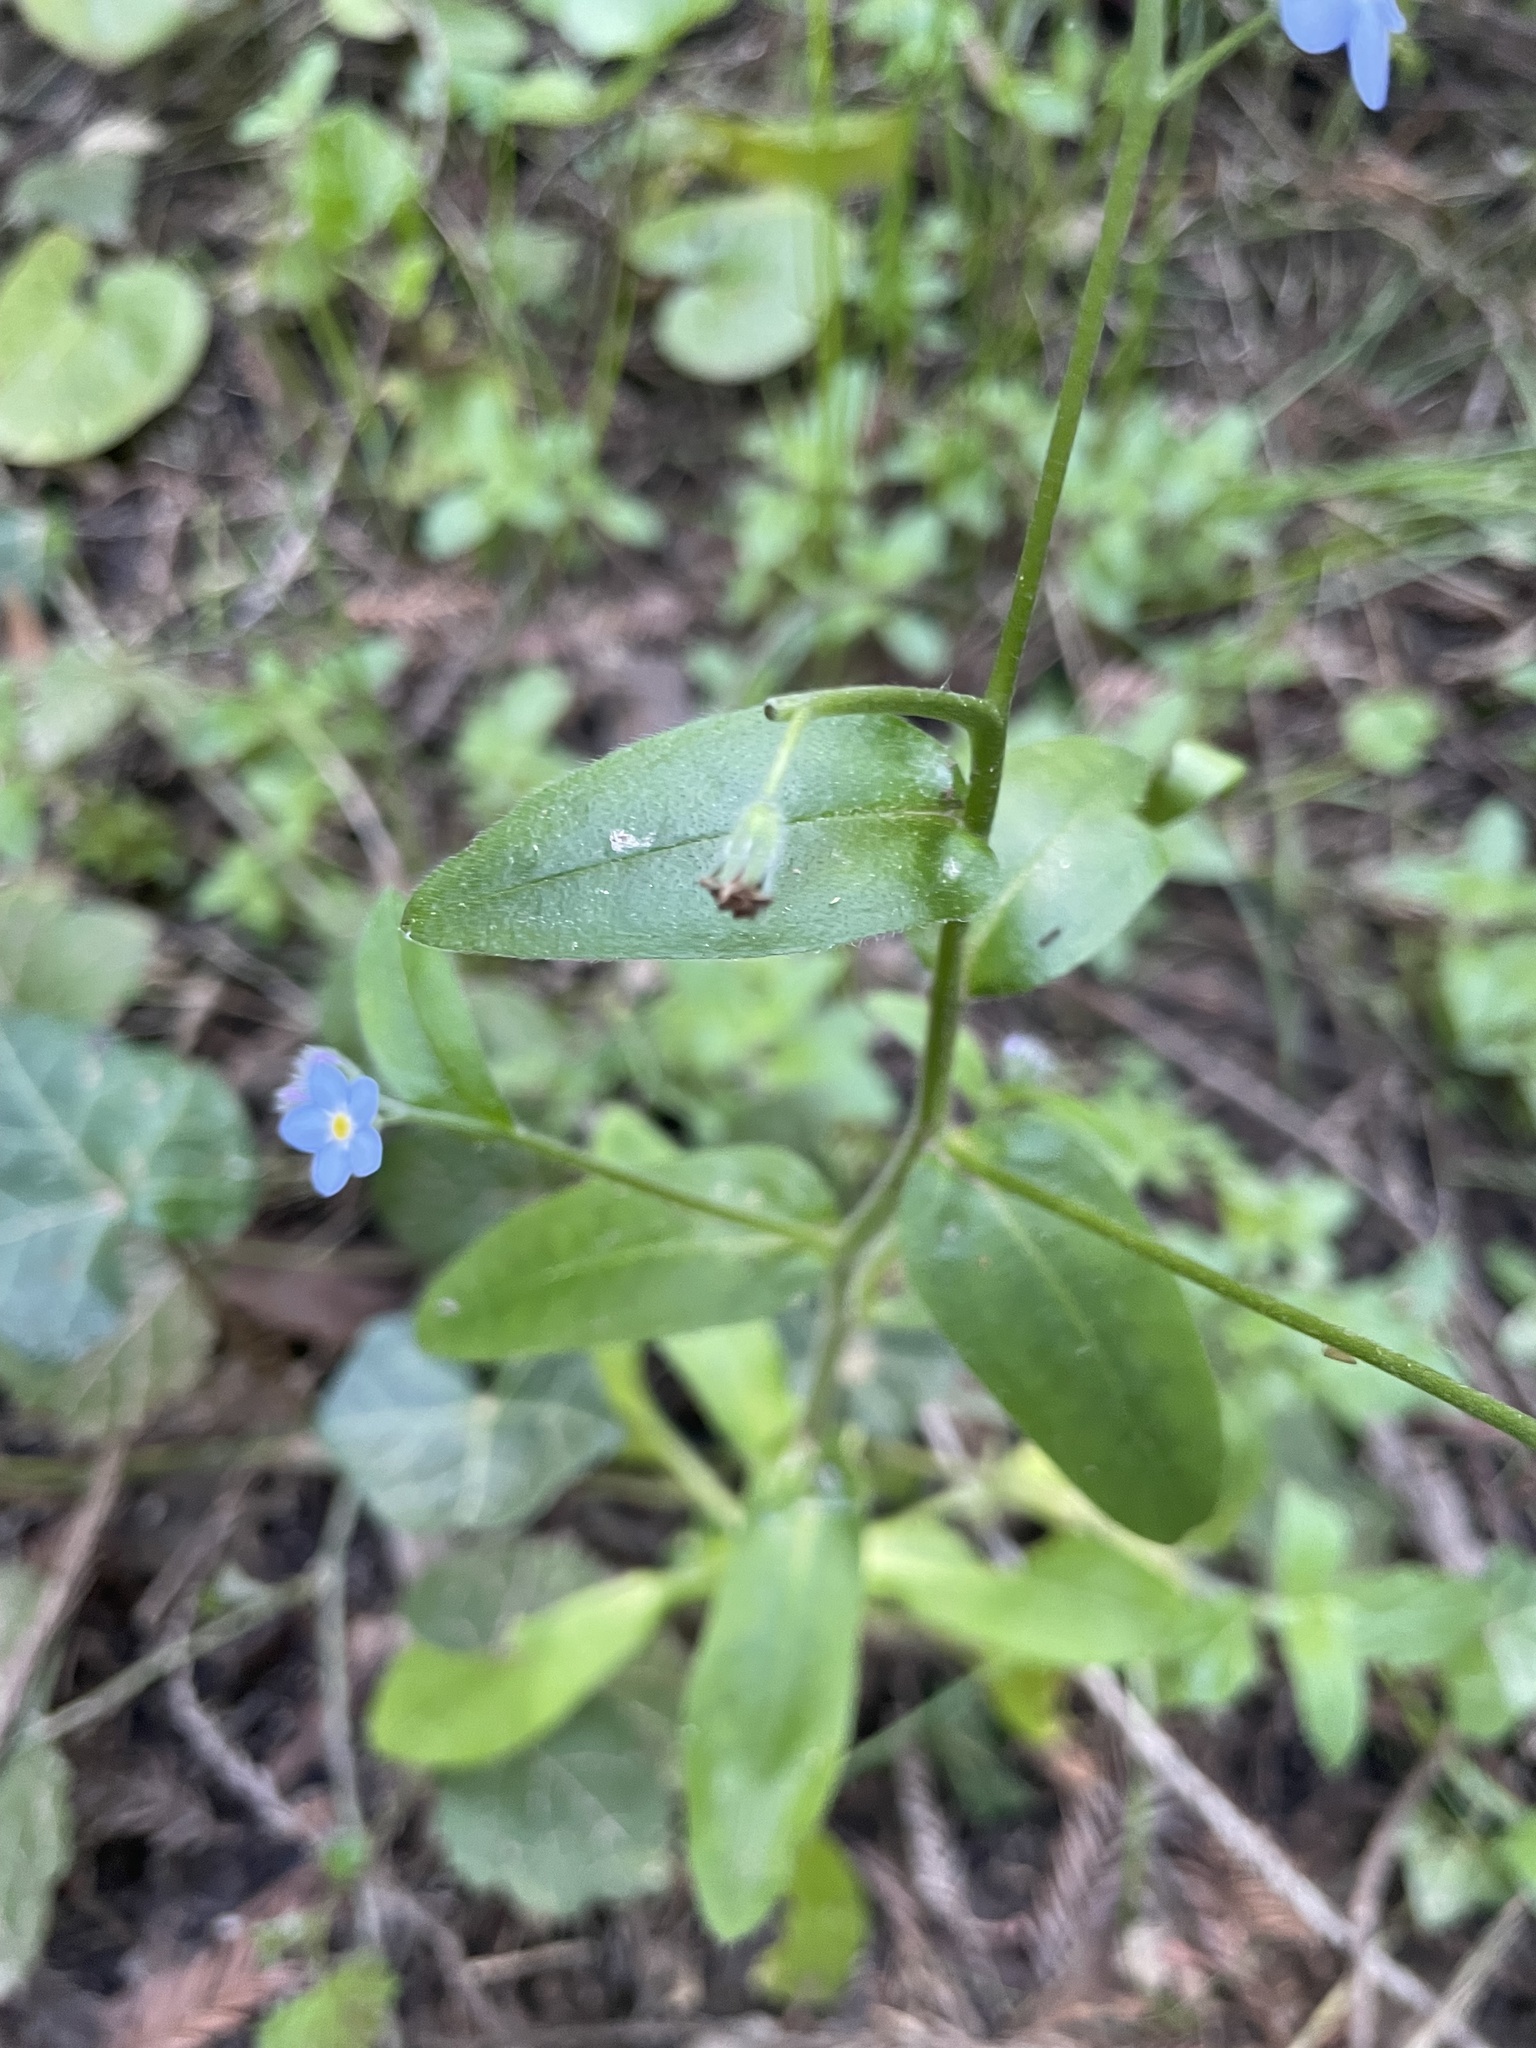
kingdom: Plantae
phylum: Tracheophyta
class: Magnoliopsida
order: Boraginales
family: Boraginaceae
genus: Myosotis
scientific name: Myosotis latifolia
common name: Broadleaf forget-me-not
